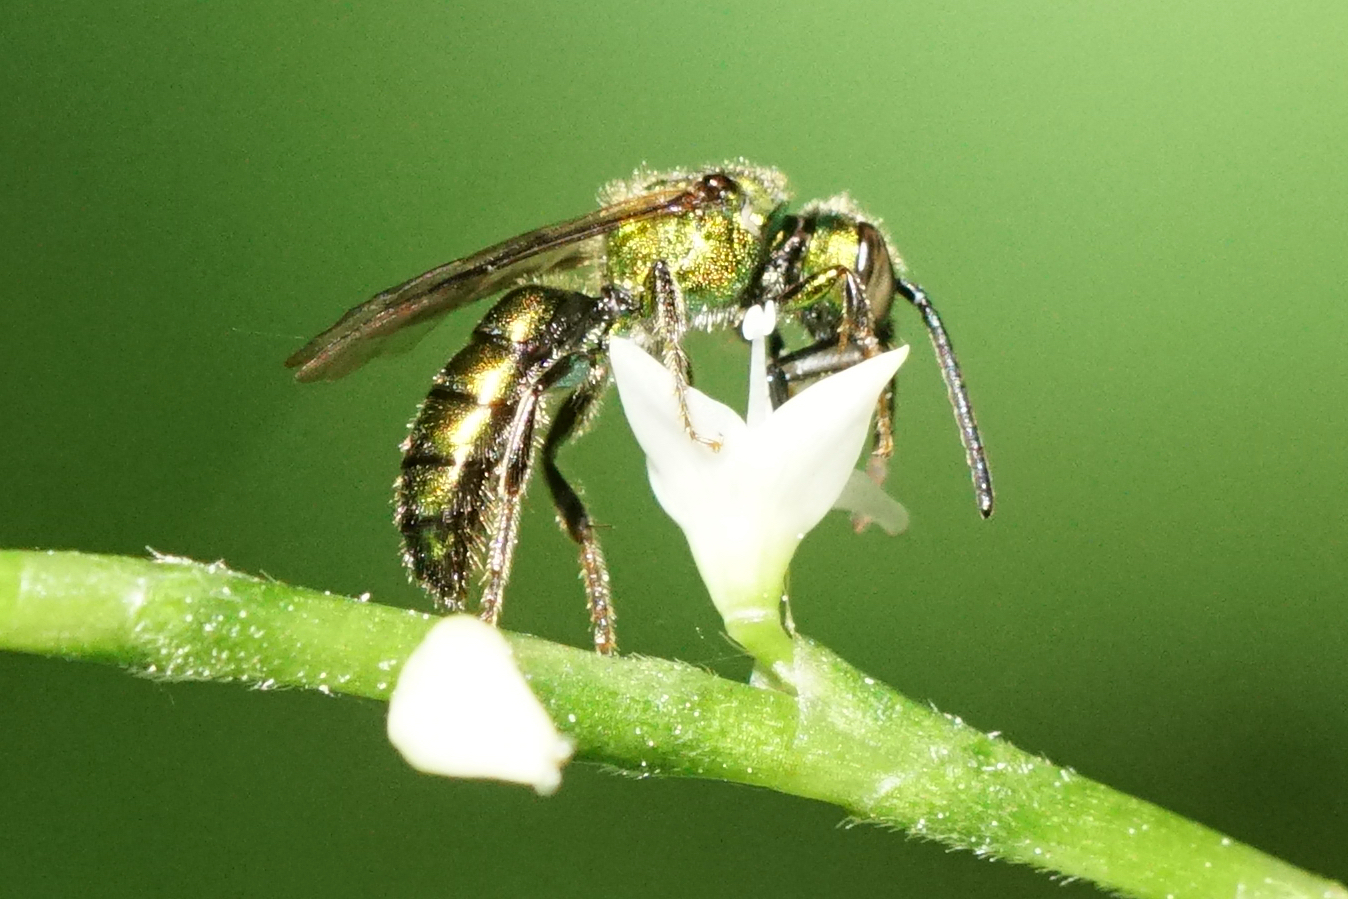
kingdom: Animalia
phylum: Arthropoda
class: Insecta
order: Hymenoptera
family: Halictidae
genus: Augochlora
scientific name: Augochlora pura
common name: Pure green sweat bee
